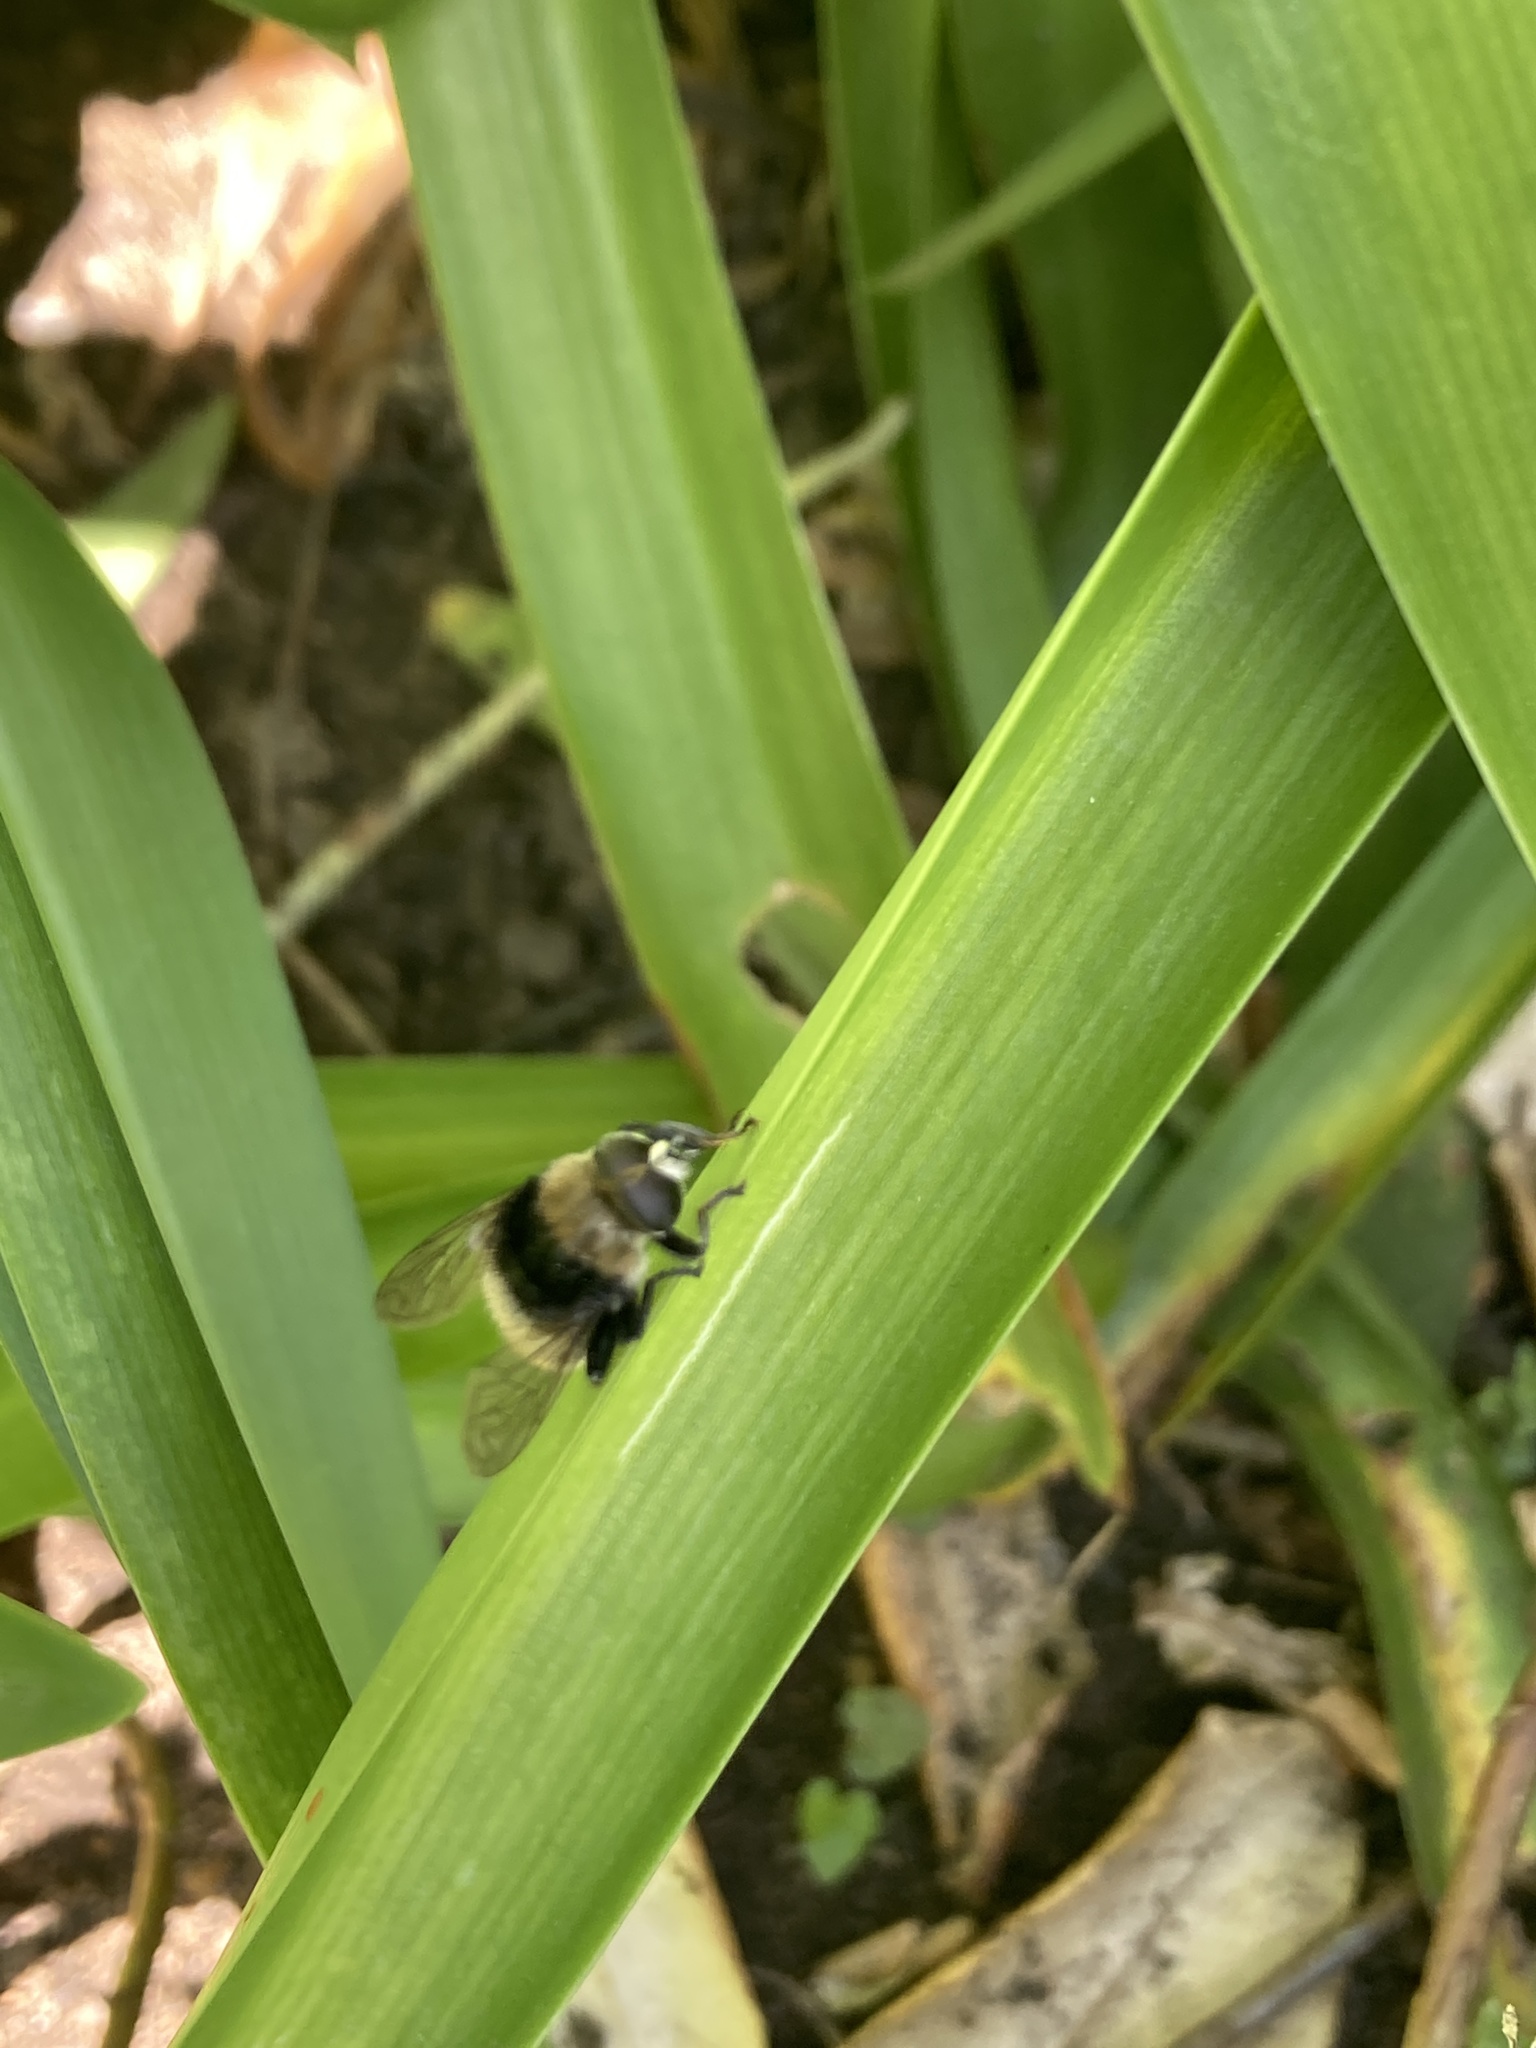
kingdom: Animalia
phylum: Arthropoda
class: Insecta
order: Diptera
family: Syrphidae
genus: Merodon
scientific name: Merodon equestris
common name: Greater bulb-fly
